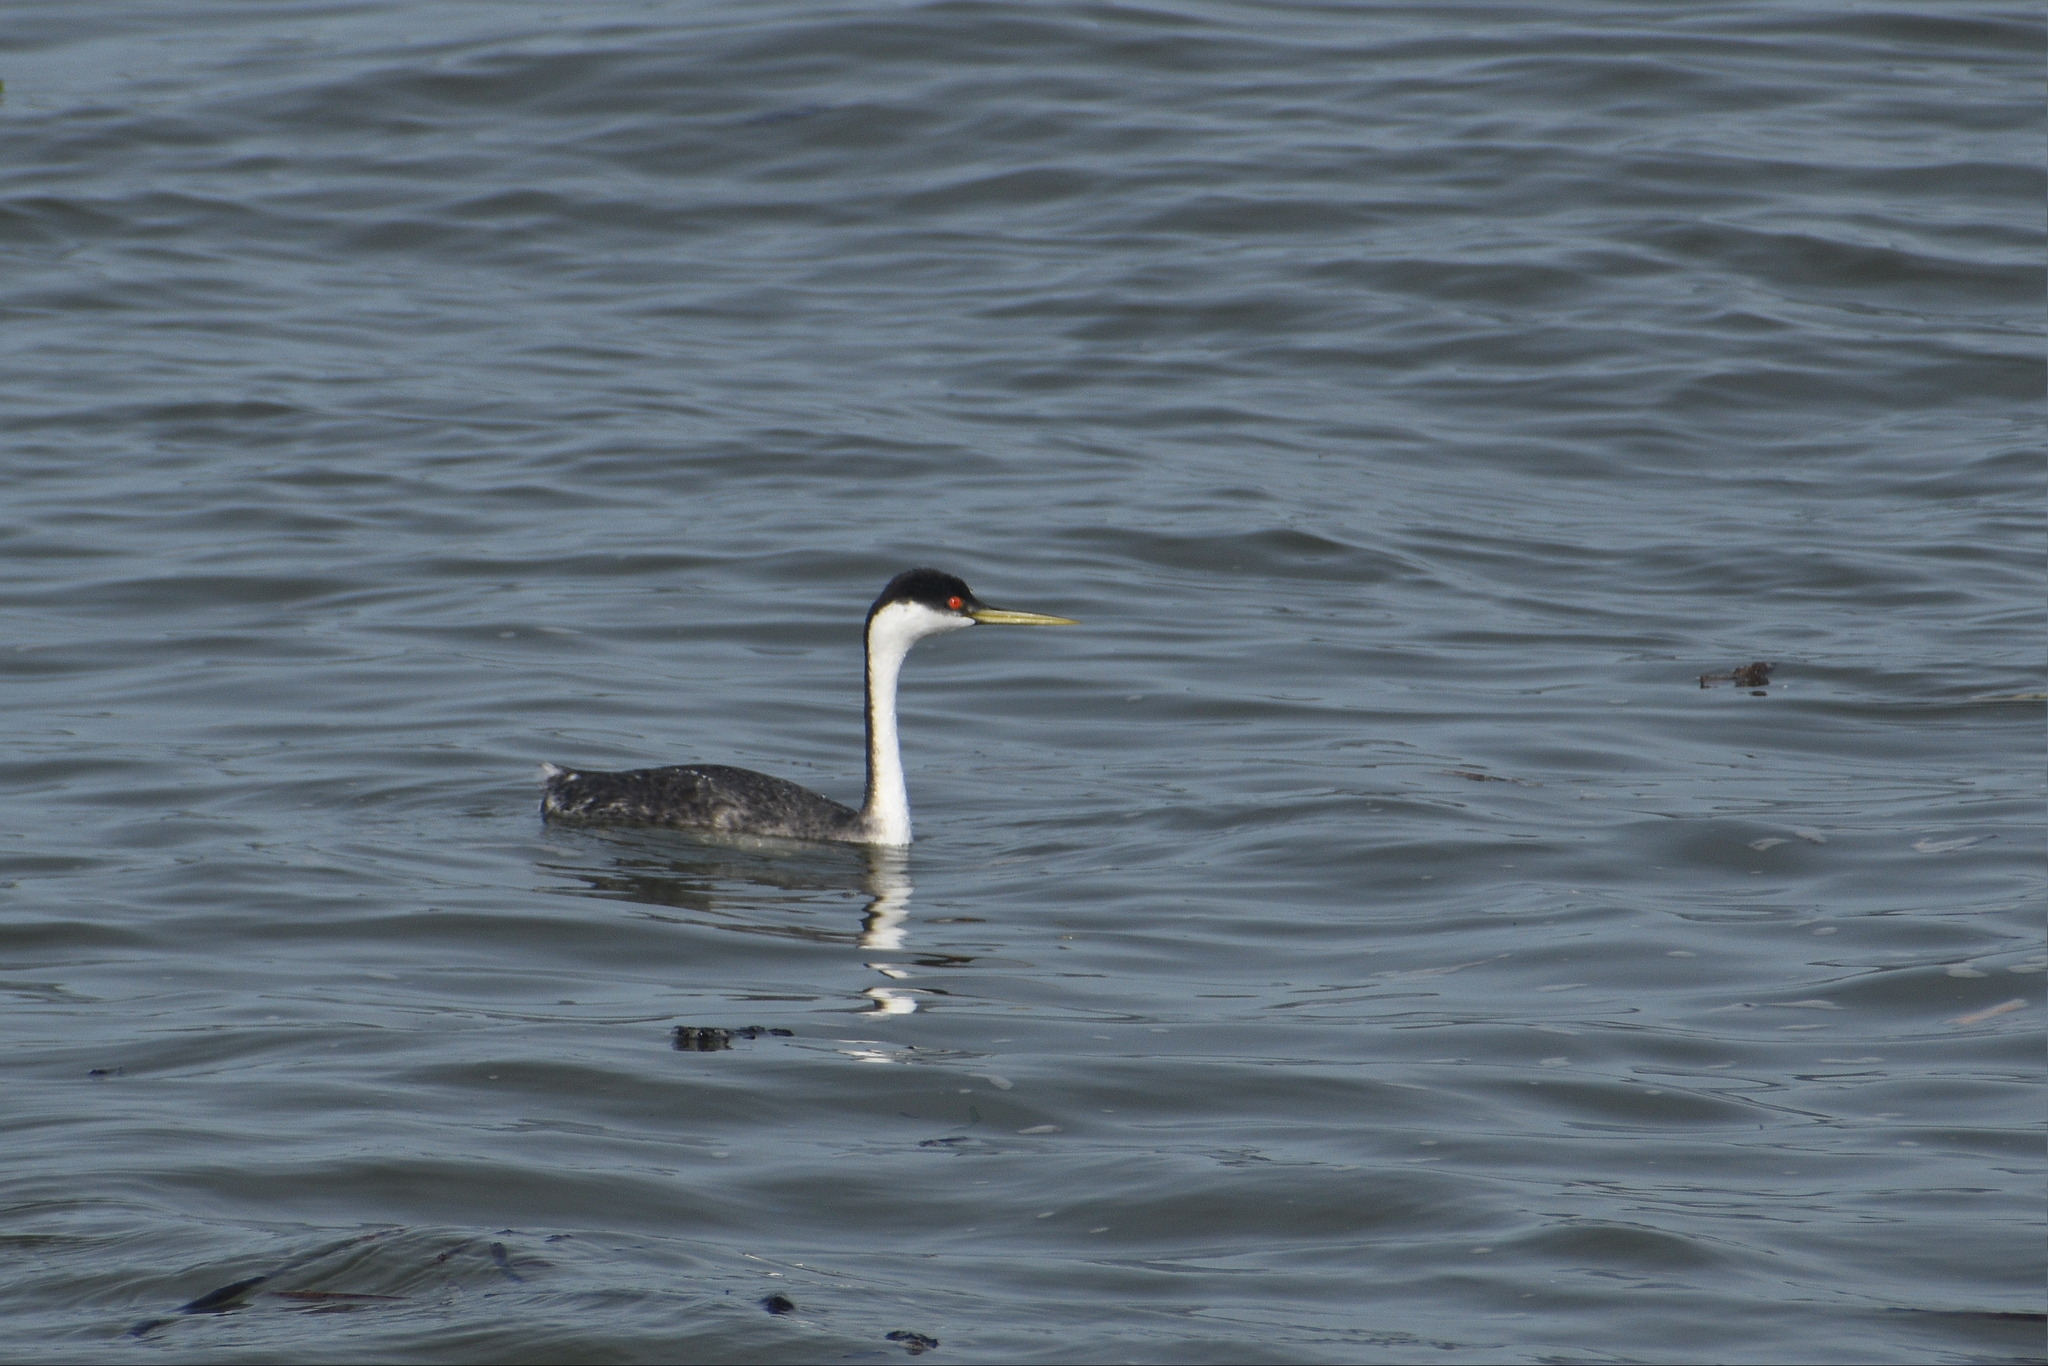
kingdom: Animalia
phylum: Chordata
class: Aves
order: Podicipediformes
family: Podicipedidae
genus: Aechmophorus
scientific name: Aechmophorus occidentalis
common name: Western grebe
